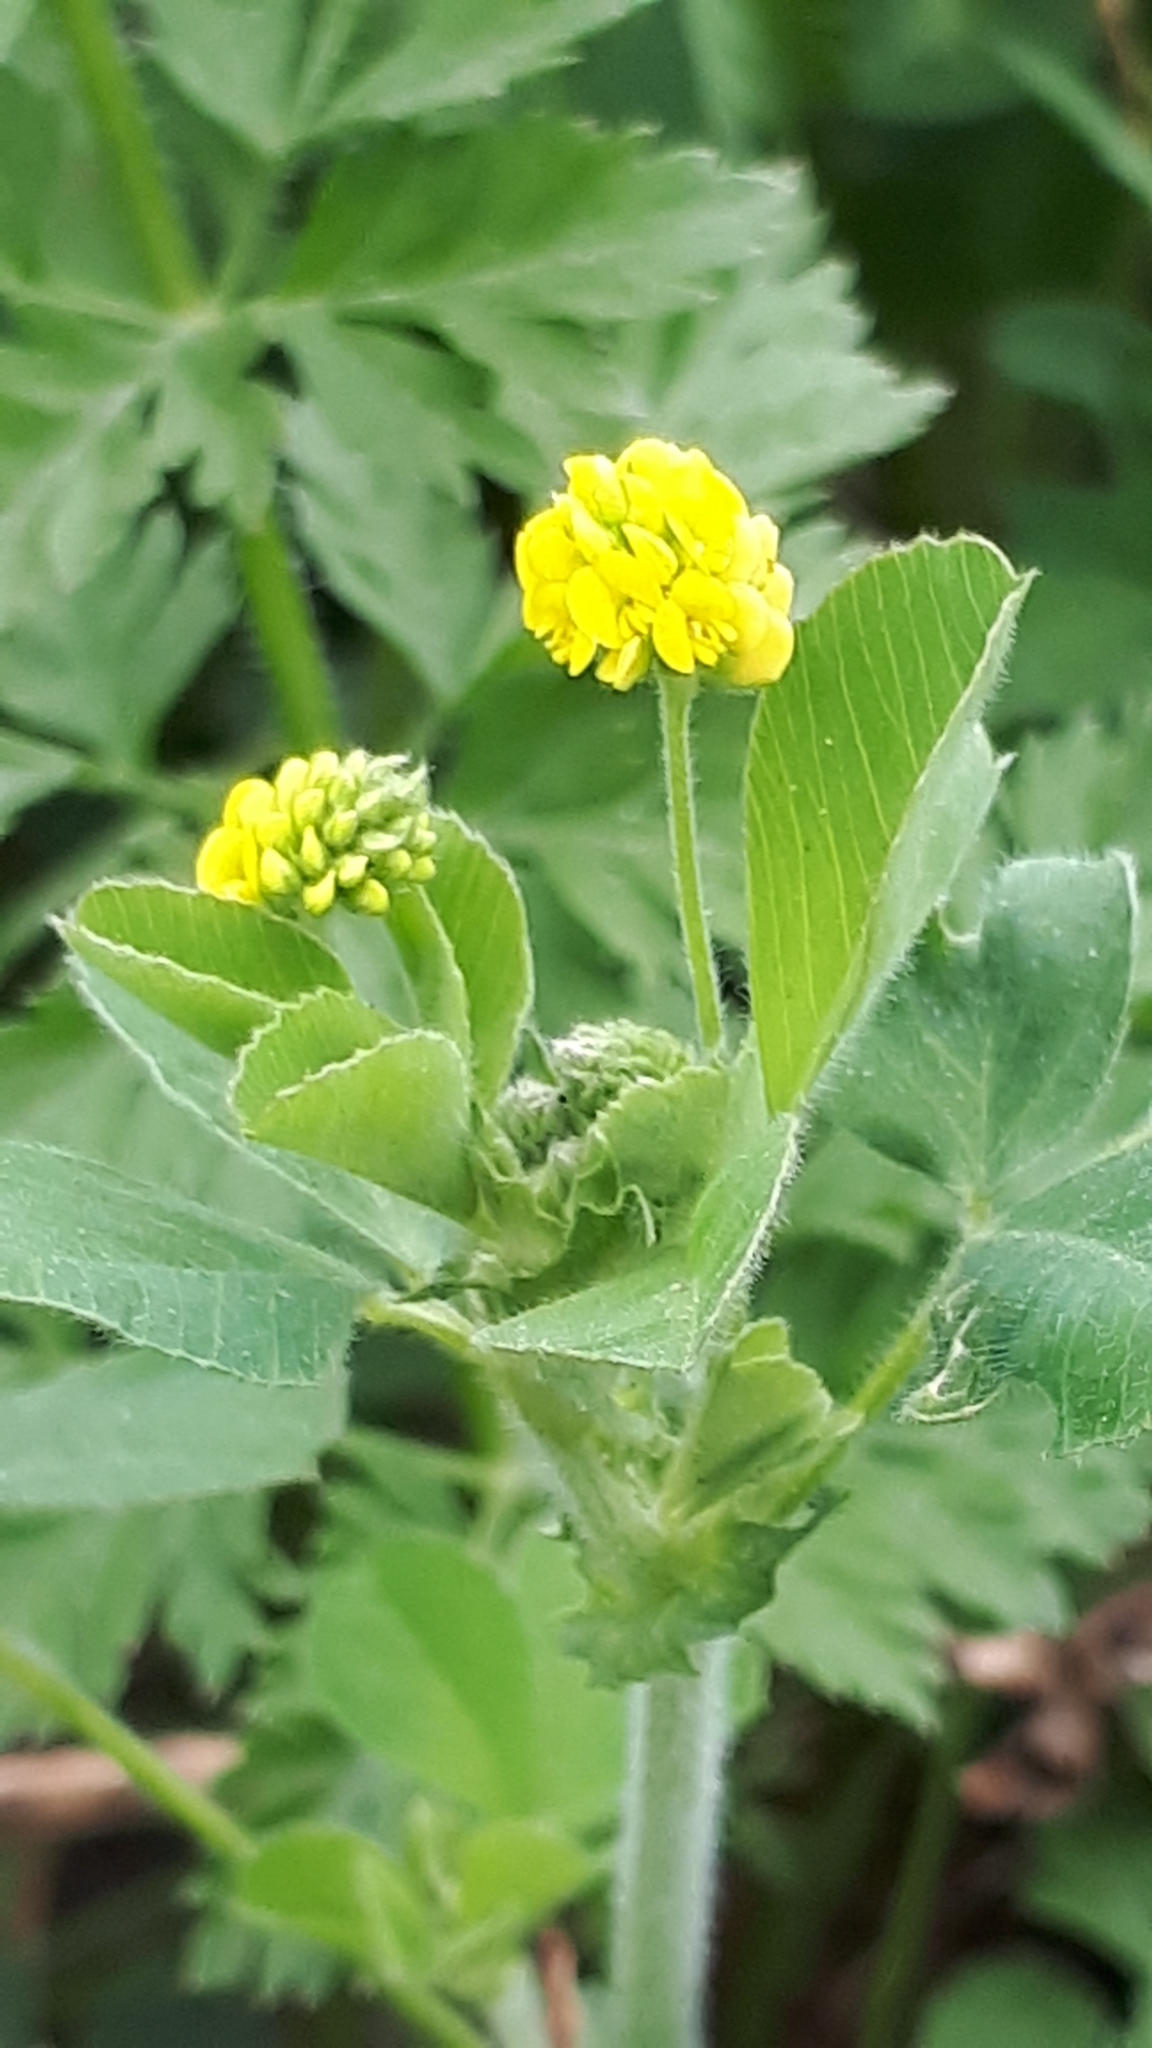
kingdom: Plantae
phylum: Tracheophyta
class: Magnoliopsida
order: Fabales
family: Fabaceae
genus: Medicago
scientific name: Medicago lupulina
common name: Black medick
